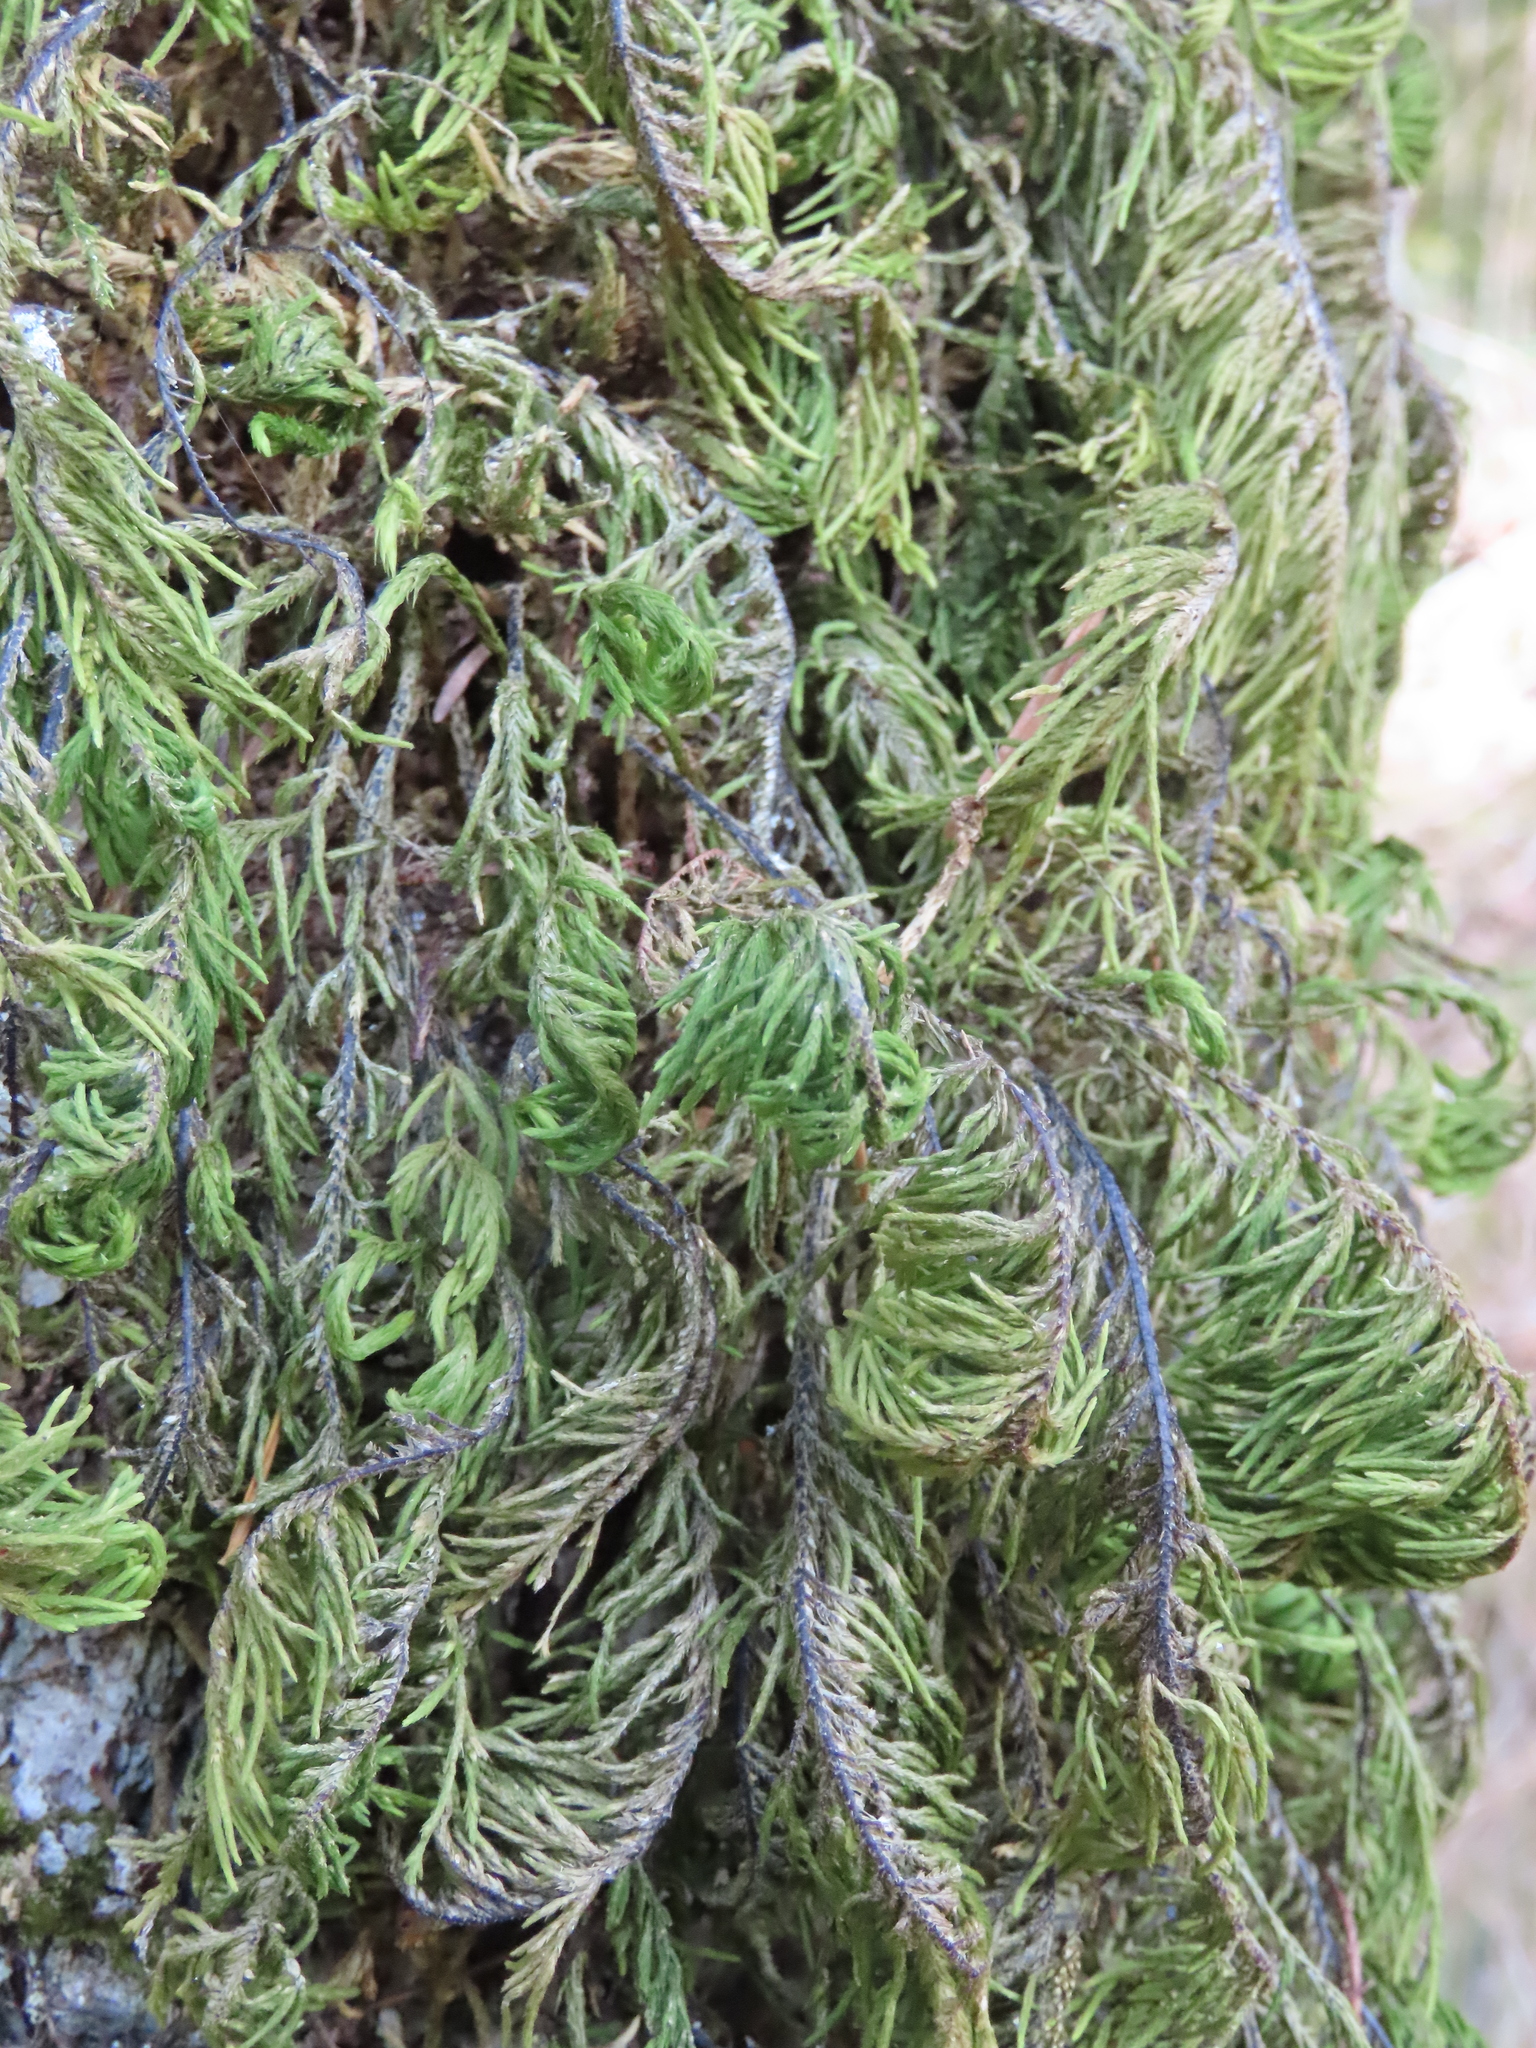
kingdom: Plantae
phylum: Bryophyta
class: Bryopsida
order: Hypnales
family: Cryphaeaceae
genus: Dendroalsia
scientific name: Dendroalsia abietina
